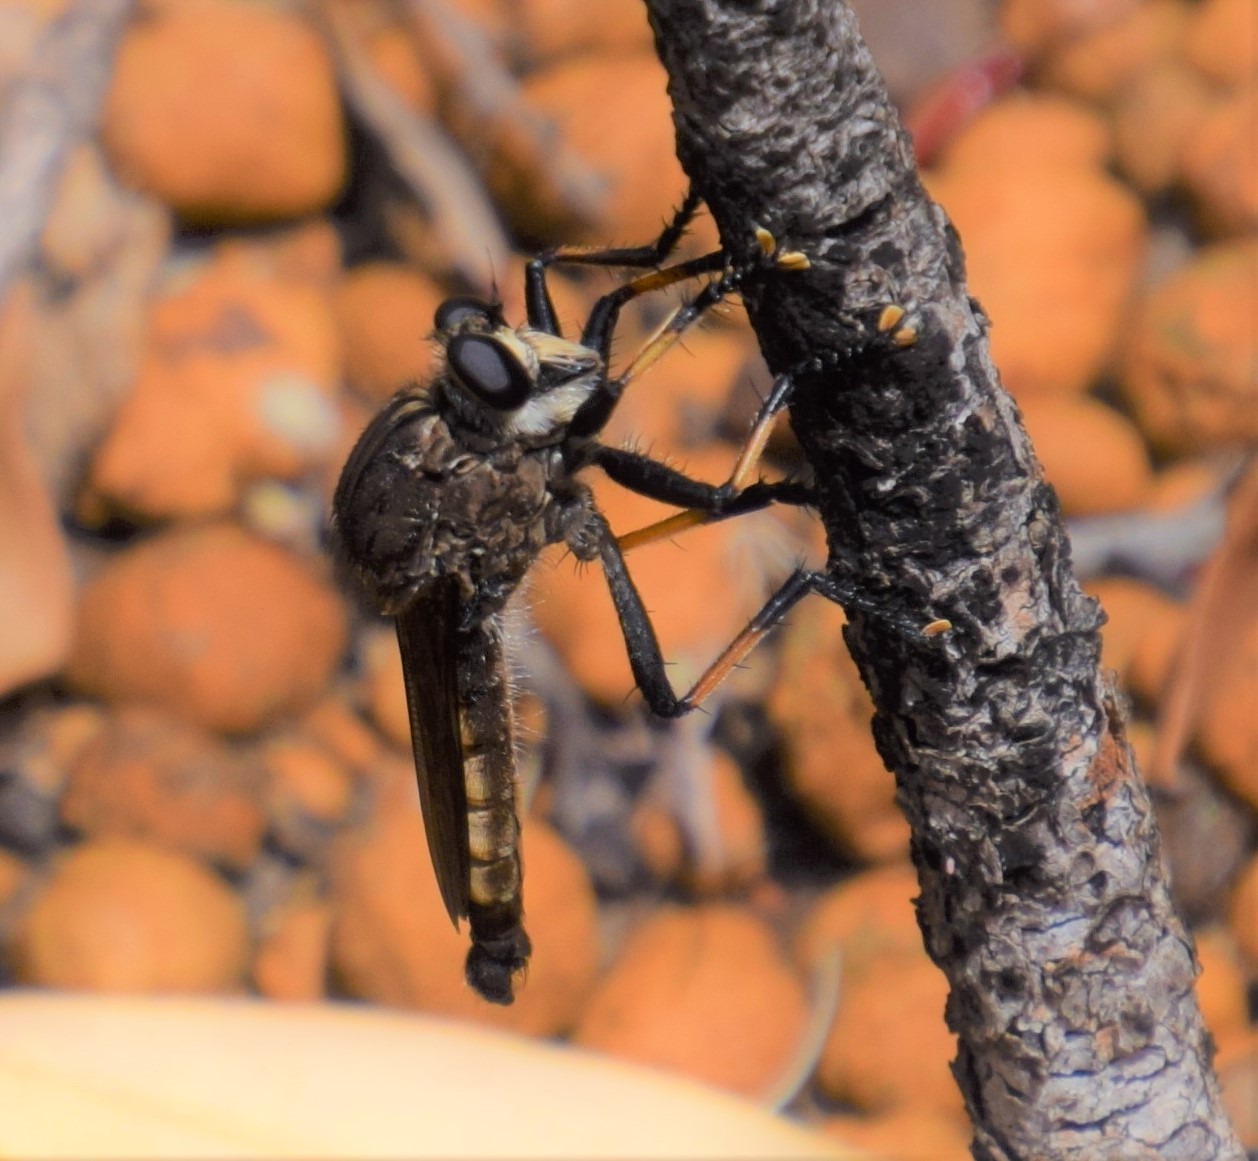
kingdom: Animalia
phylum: Arthropoda
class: Insecta
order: Diptera
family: Asilidae
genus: Mauropteron
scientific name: Mauropteron pelago
